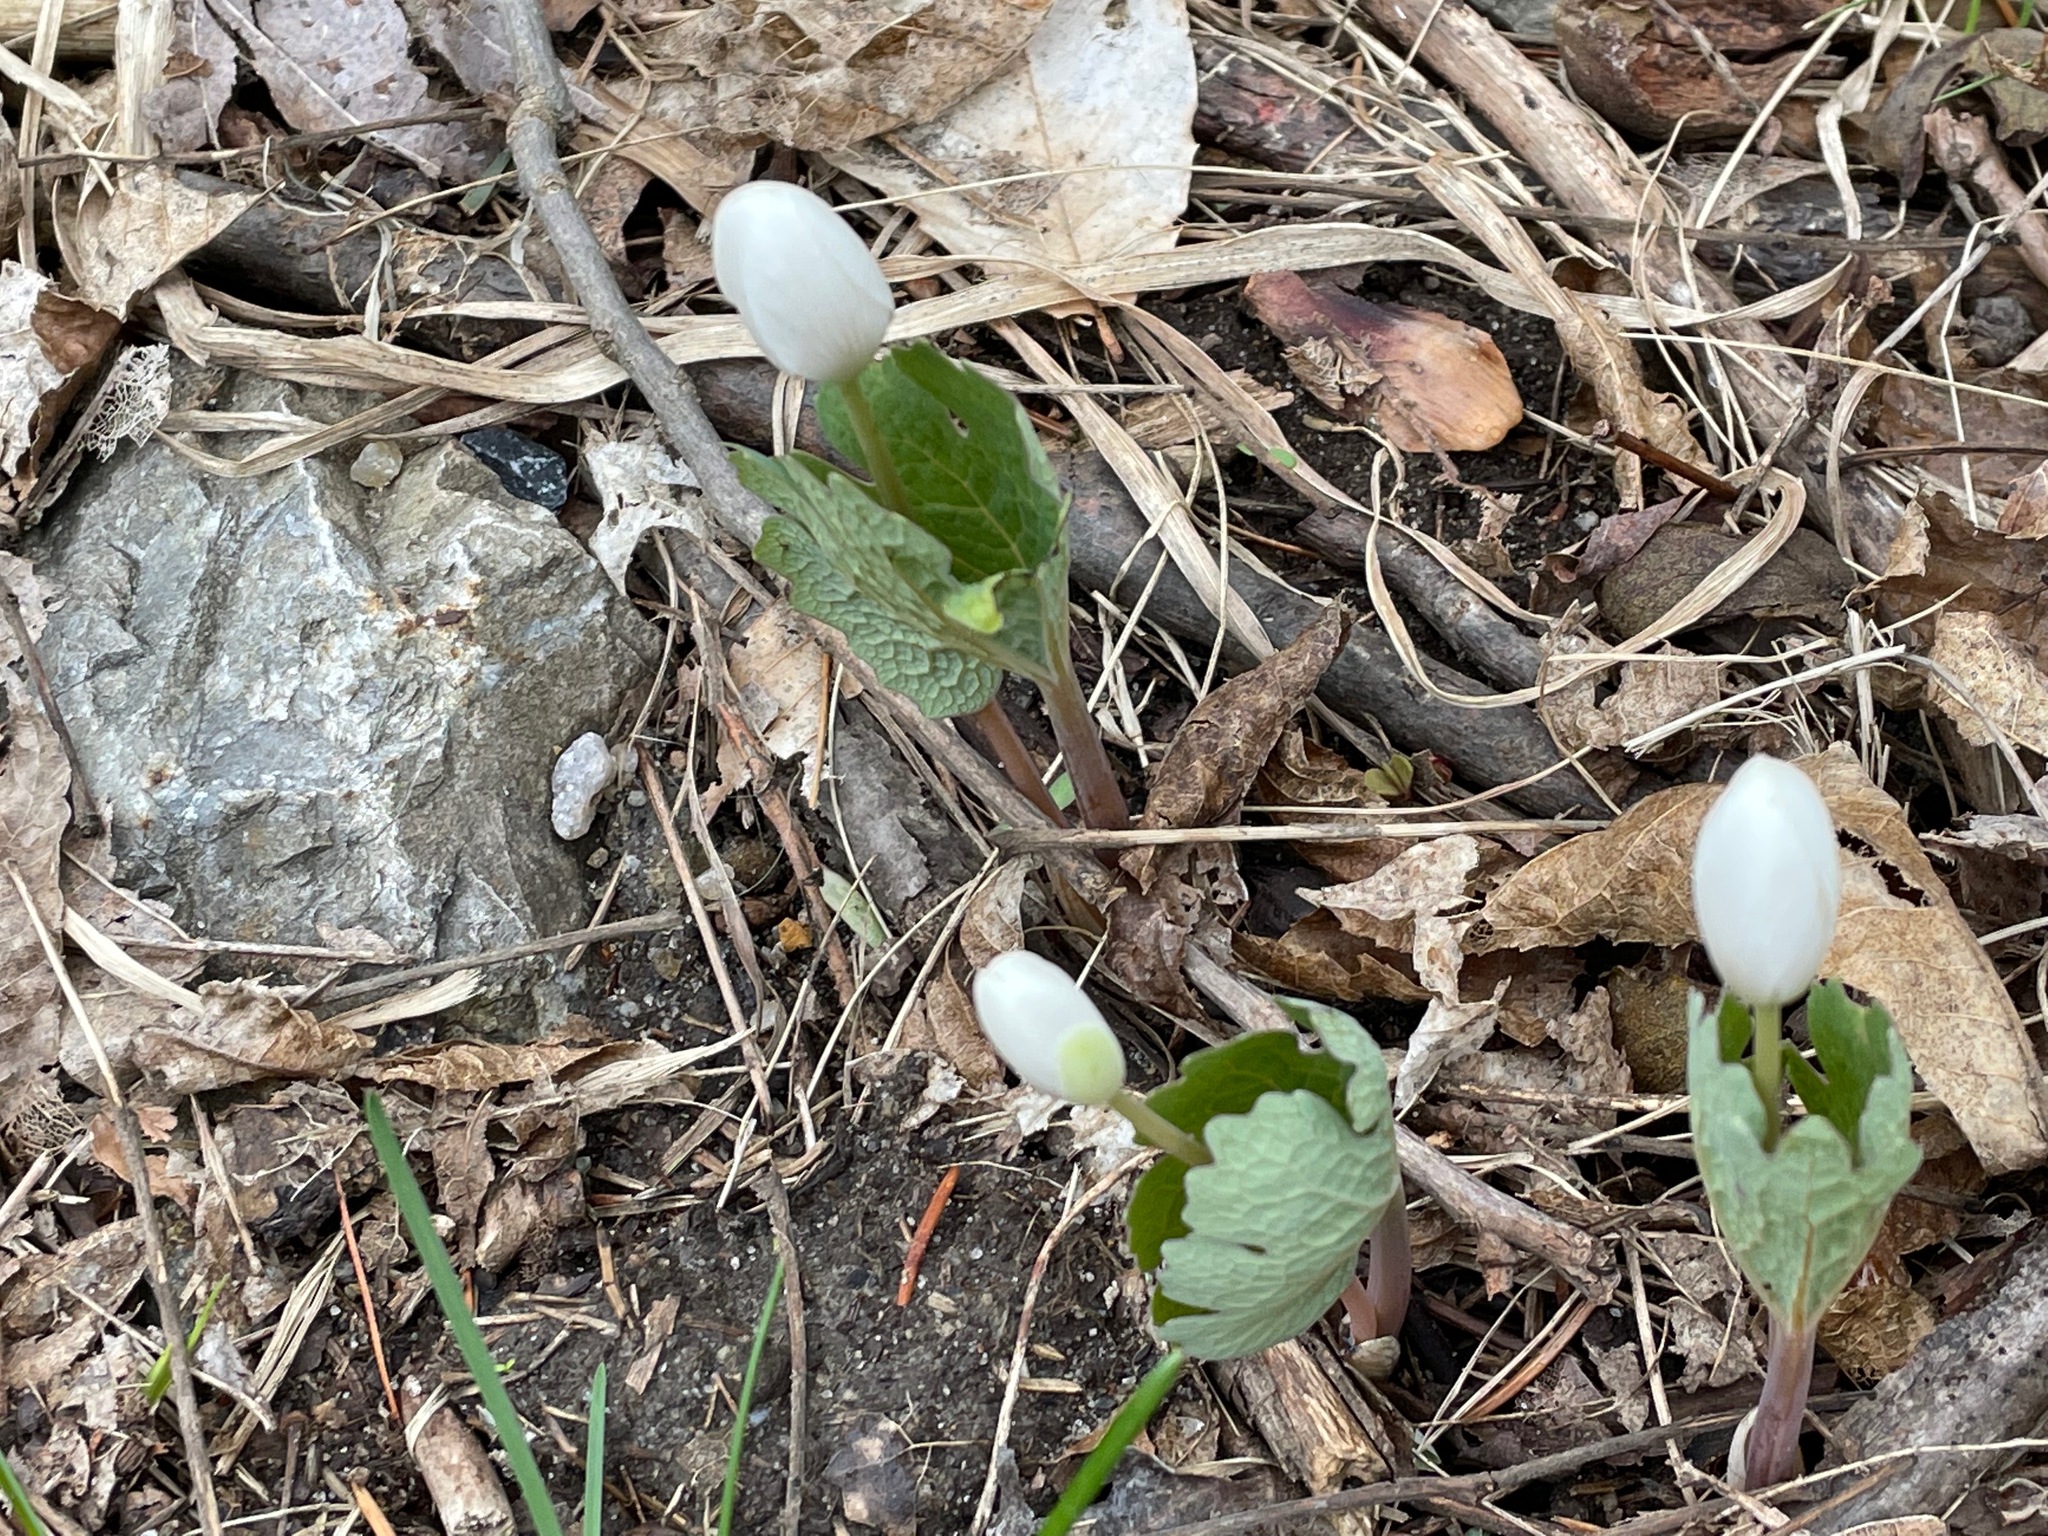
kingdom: Plantae
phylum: Tracheophyta
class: Magnoliopsida
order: Ranunculales
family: Papaveraceae
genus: Sanguinaria
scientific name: Sanguinaria canadensis
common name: Bloodroot
